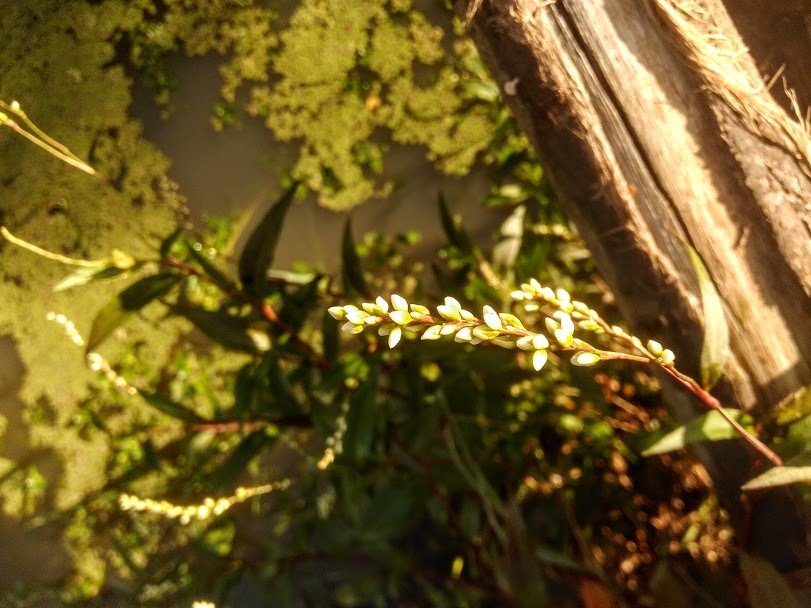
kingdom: Plantae
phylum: Tracheophyta
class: Magnoliopsida
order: Caryophyllales
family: Polygonaceae
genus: Persicaria
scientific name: Persicaria punctata
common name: Dotted smartweed
